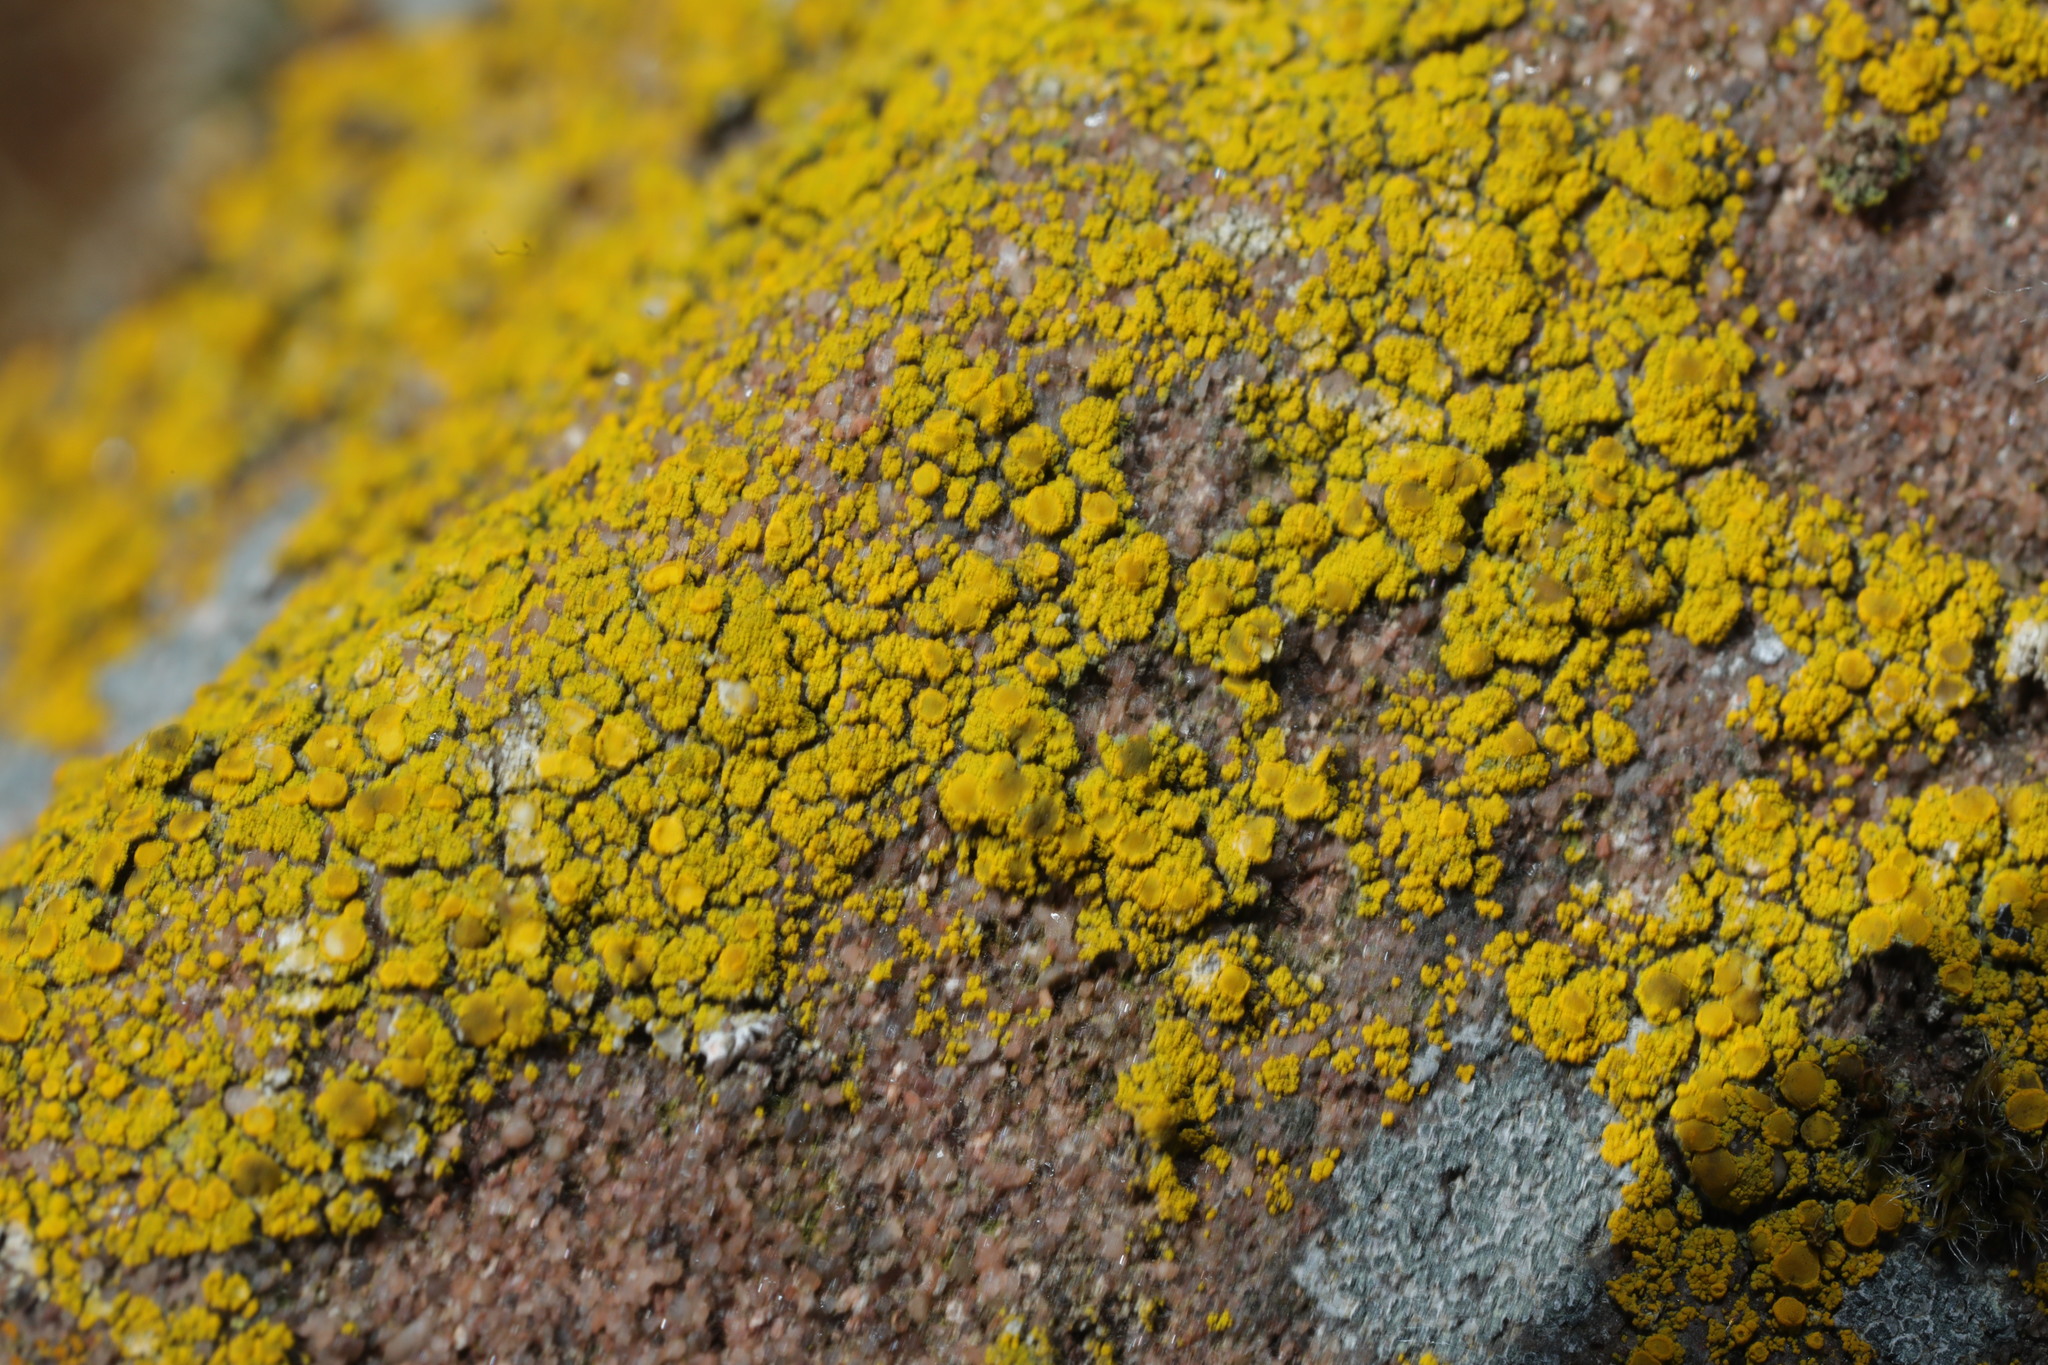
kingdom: Fungi
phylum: Ascomycota
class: Candelariomycetes
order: Candelariales
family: Candelariaceae
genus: Candelariella
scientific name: Candelariella vitellina
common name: Common goldspeck
